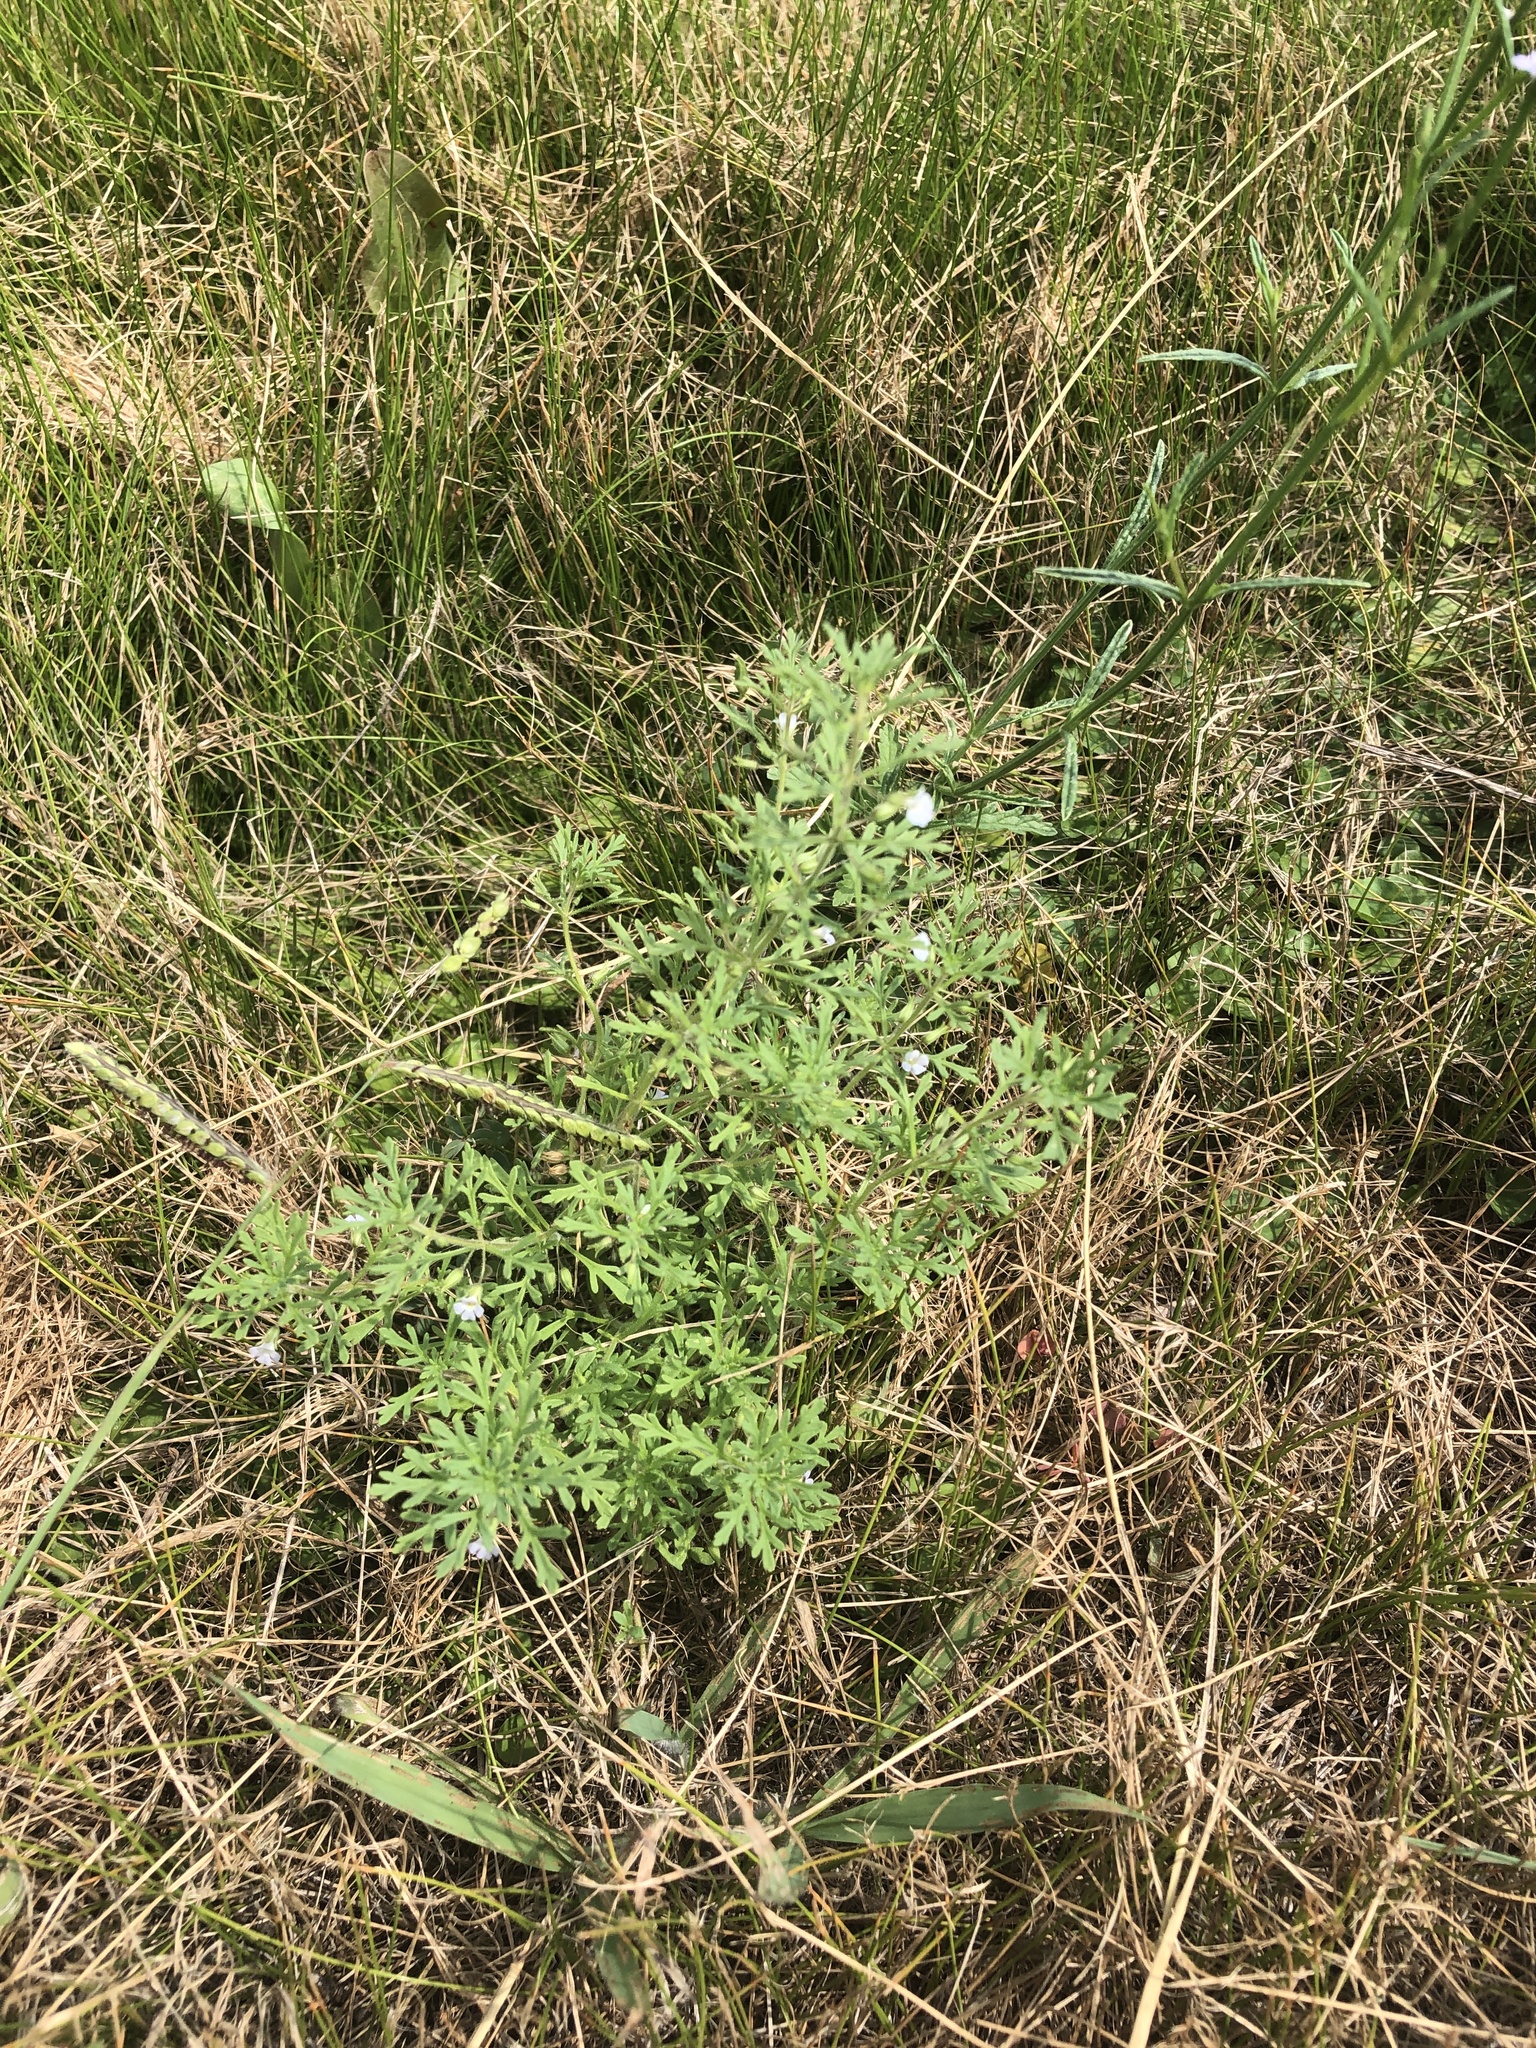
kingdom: Plantae
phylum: Tracheophyta
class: Magnoliopsida
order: Lamiales
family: Plantaginaceae
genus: Leucospora
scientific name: Leucospora multifida
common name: Narrow-leaf paleseed
